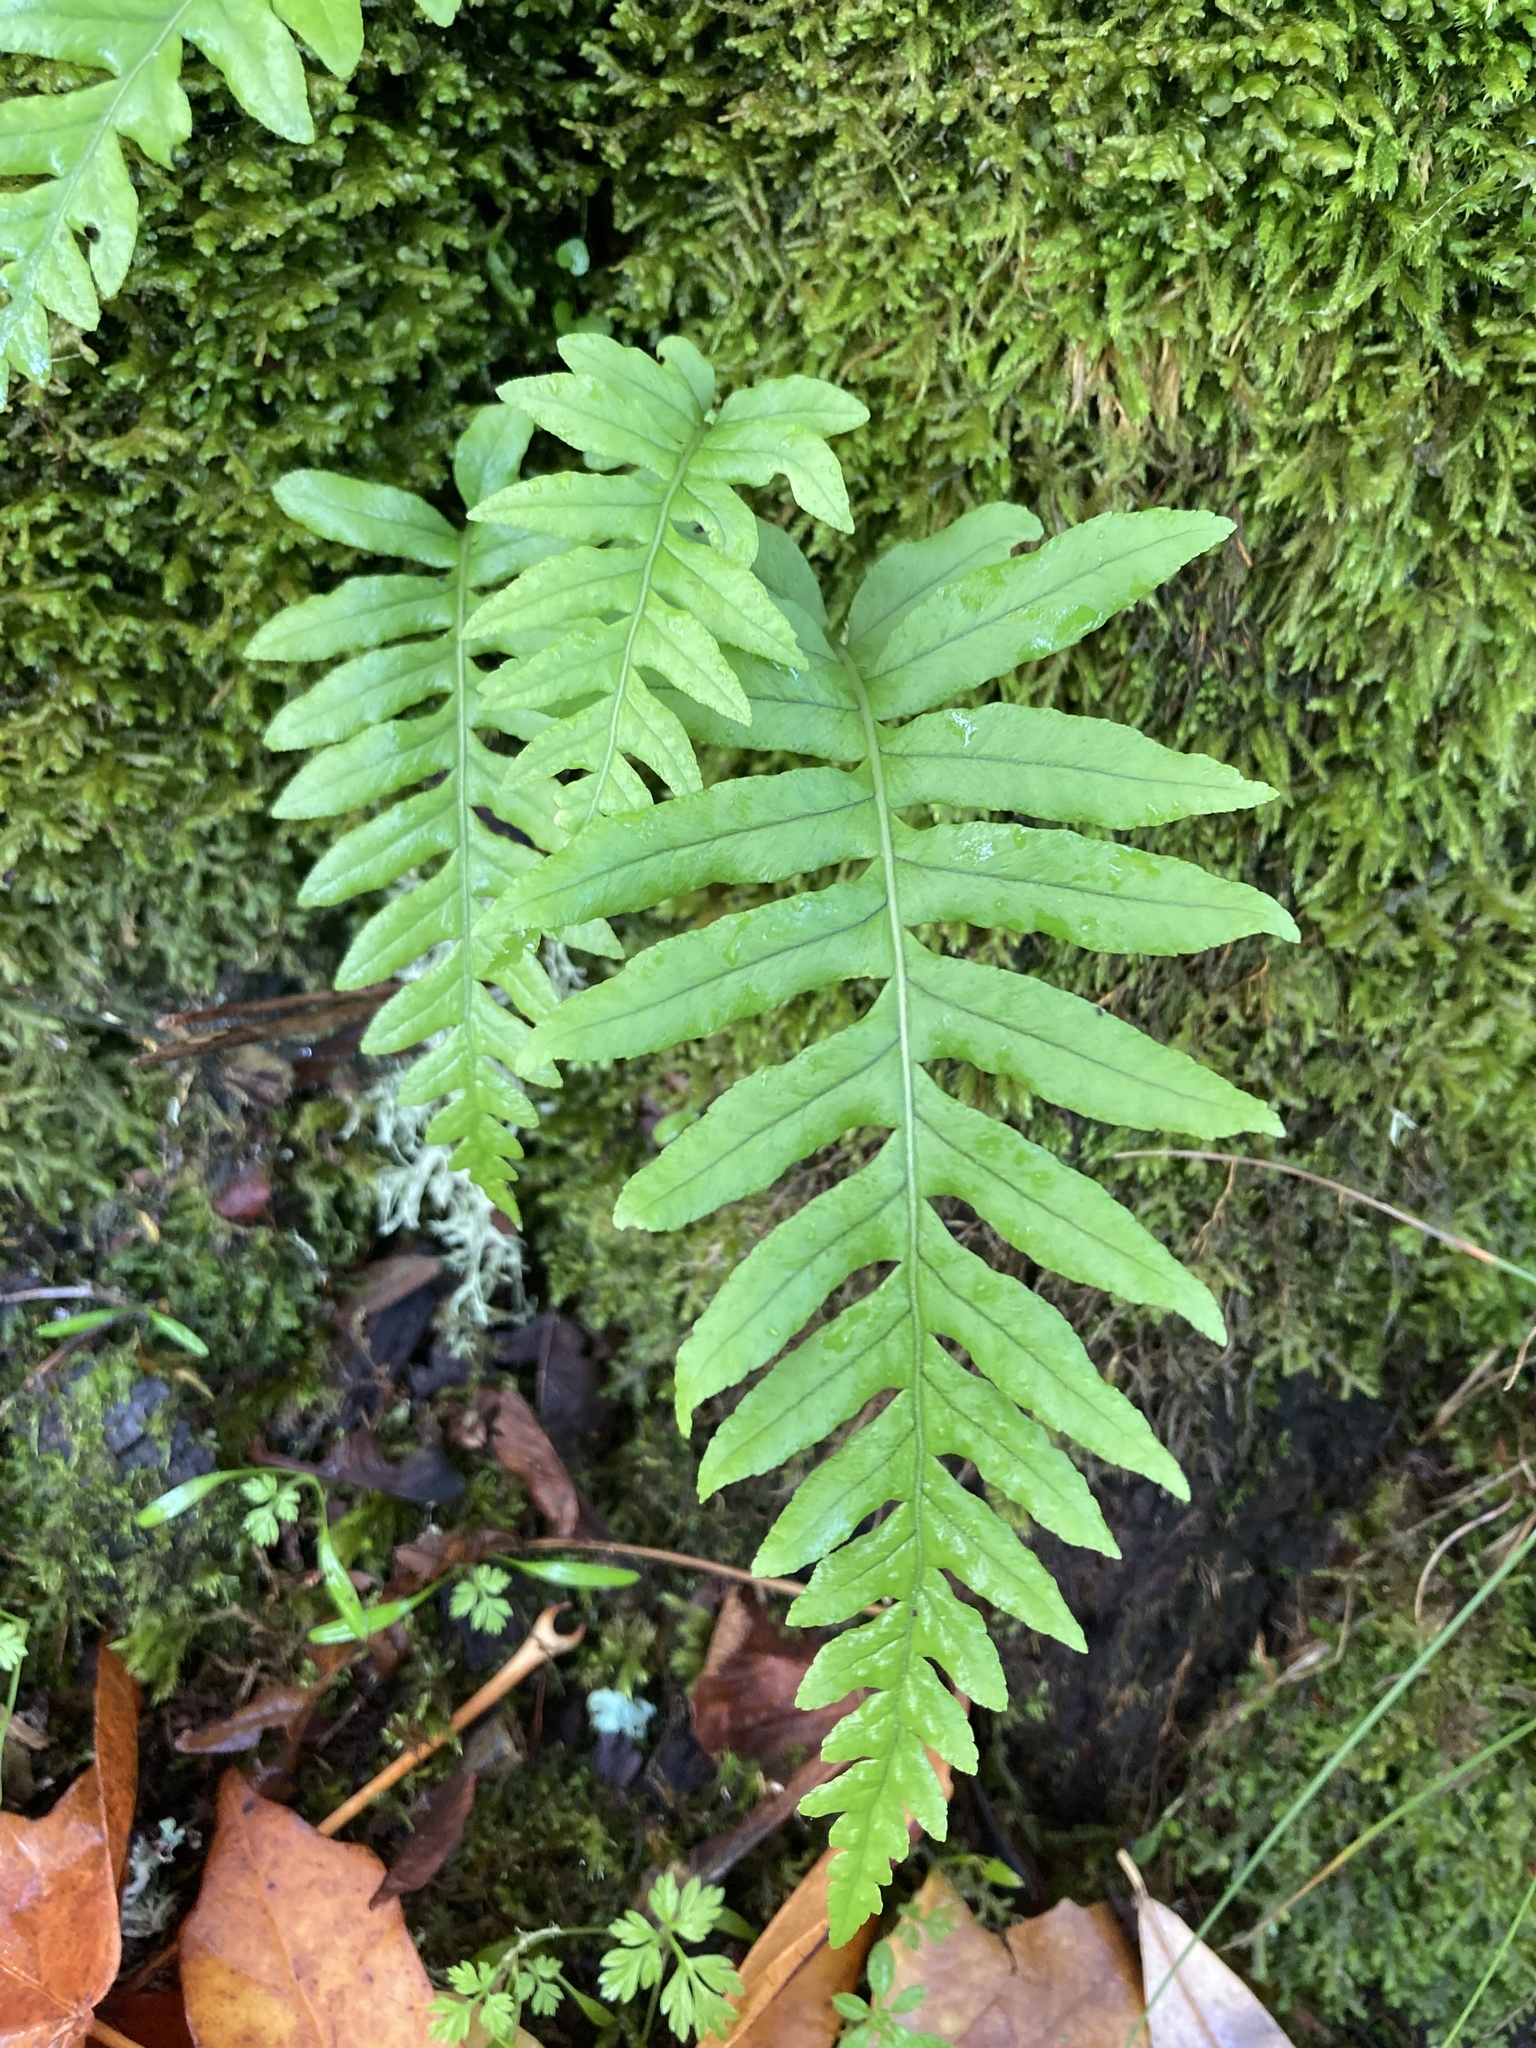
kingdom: Plantae
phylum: Tracheophyta
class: Polypodiopsida
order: Polypodiales
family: Polypodiaceae
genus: Polypodium
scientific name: Polypodium glycyrrhiza
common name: Licorice fern
